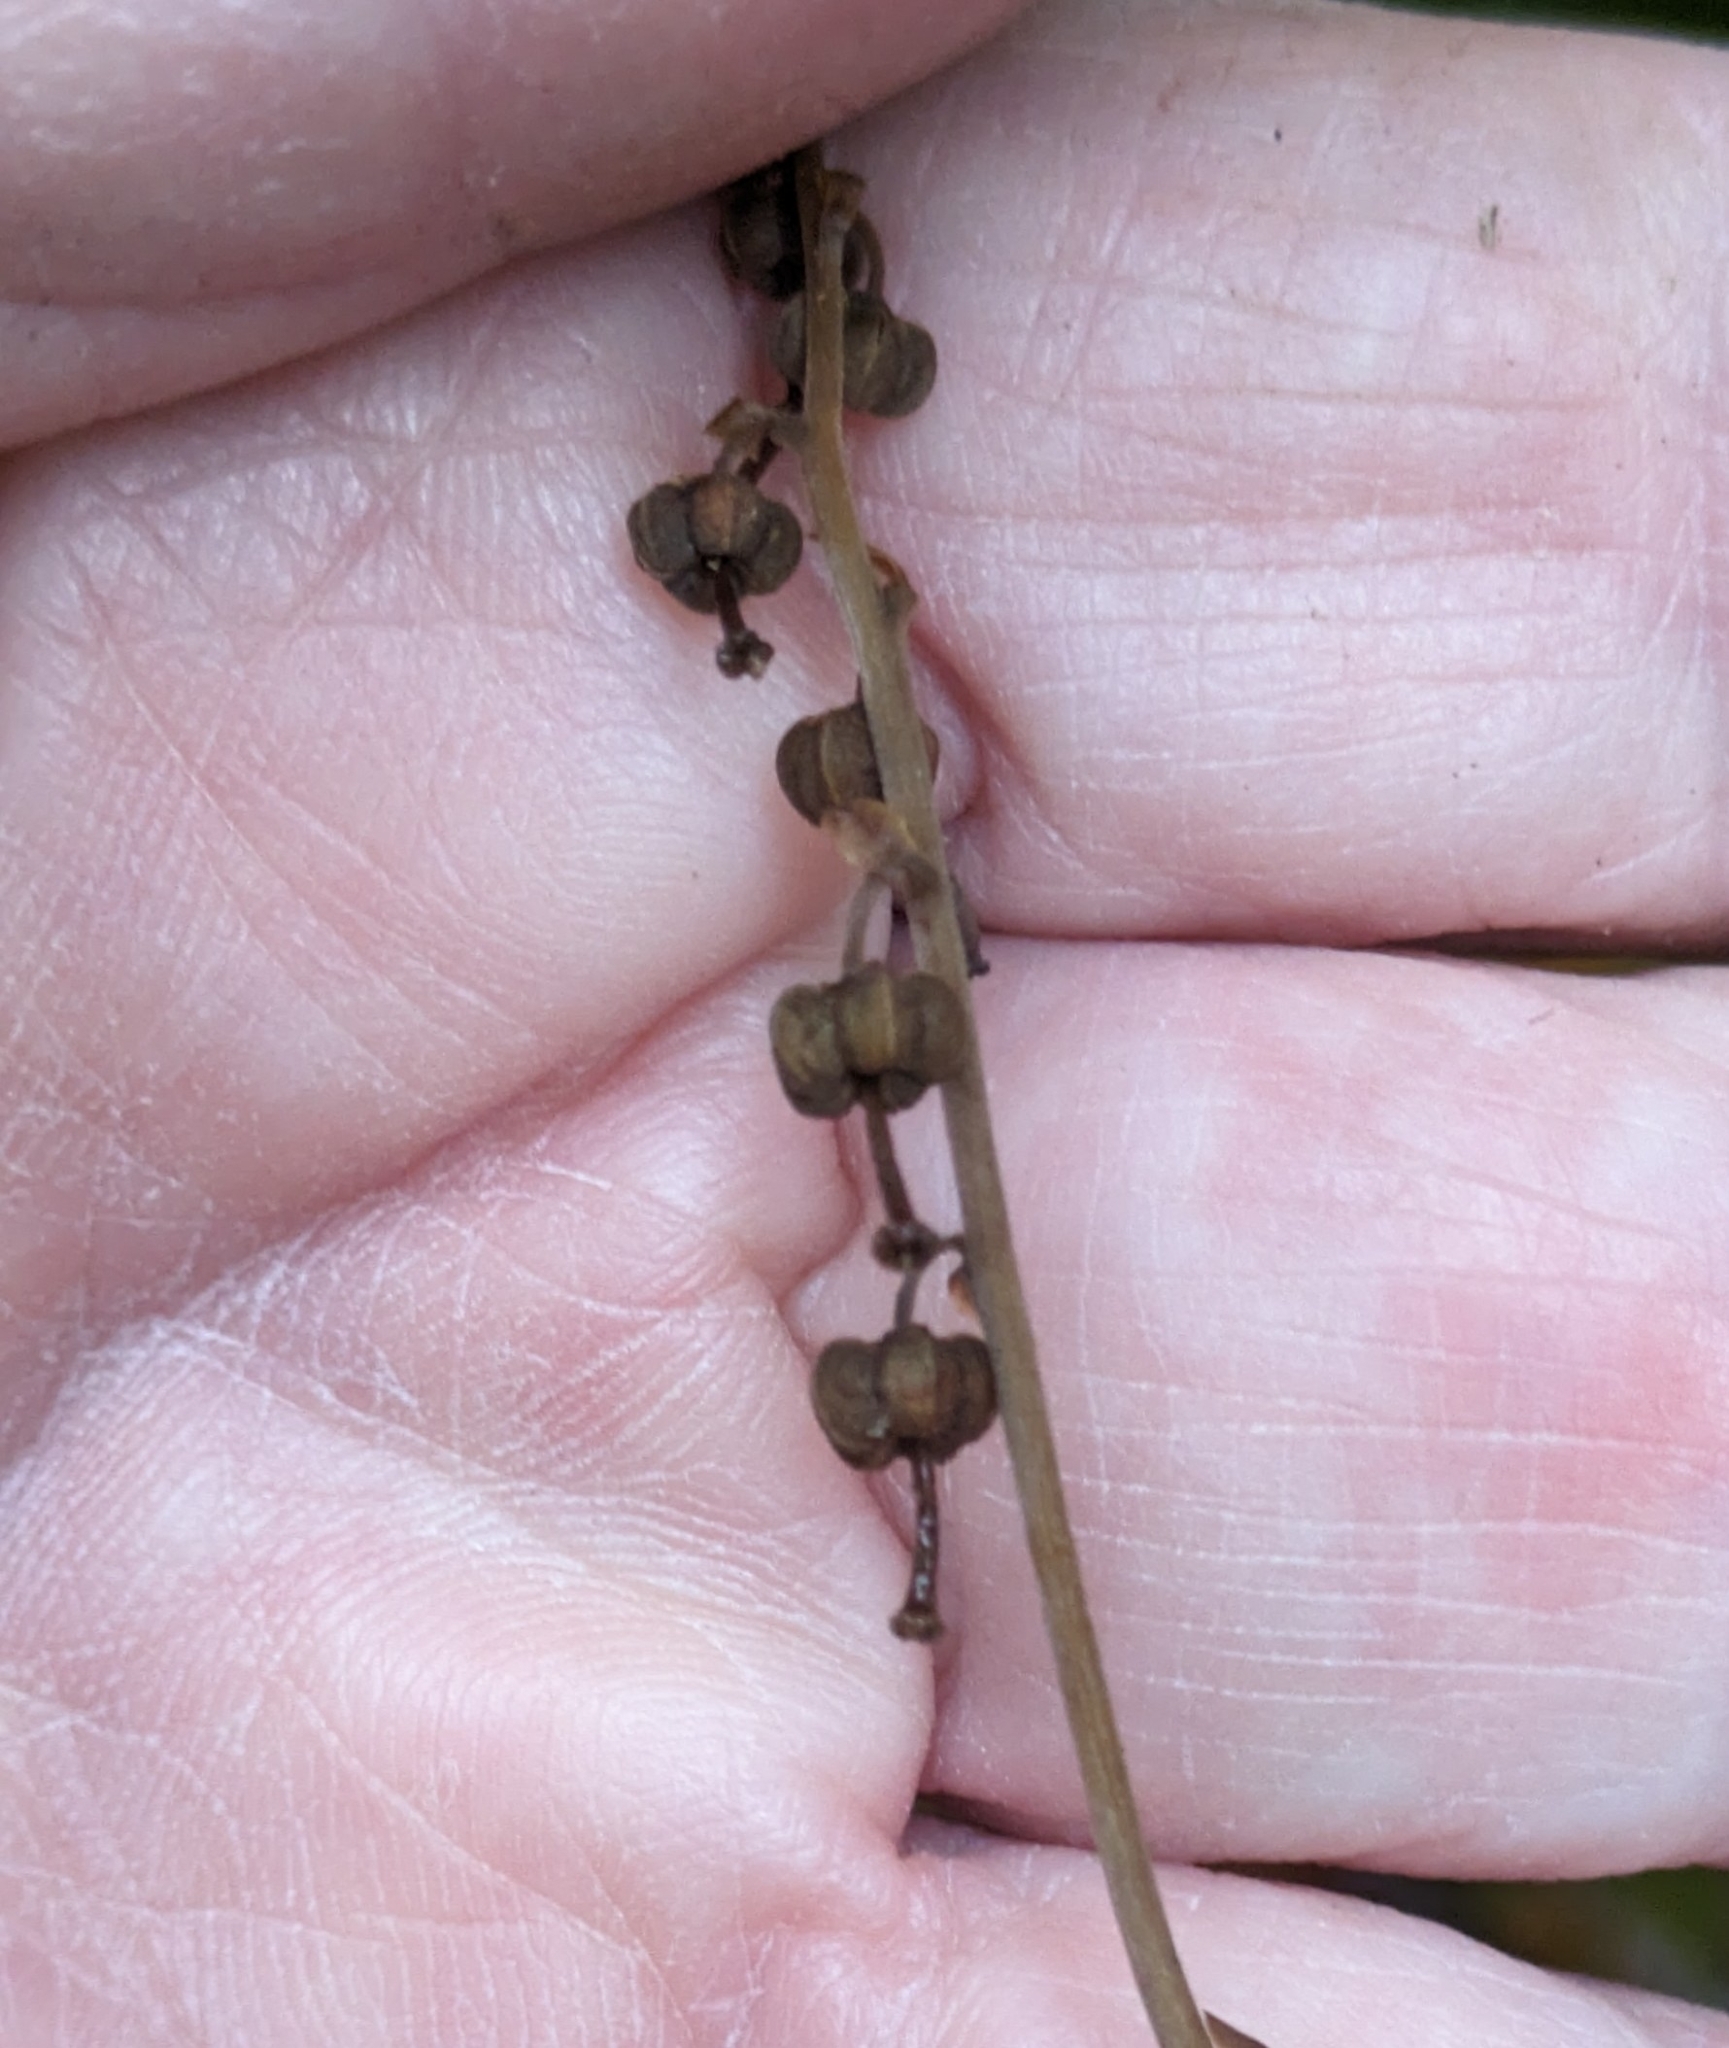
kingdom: Plantae
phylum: Tracheophyta
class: Magnoliopsida
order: Ericales
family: Ericaceae
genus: Orthilia
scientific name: Orthilia secunda
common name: One-sided orthilia
